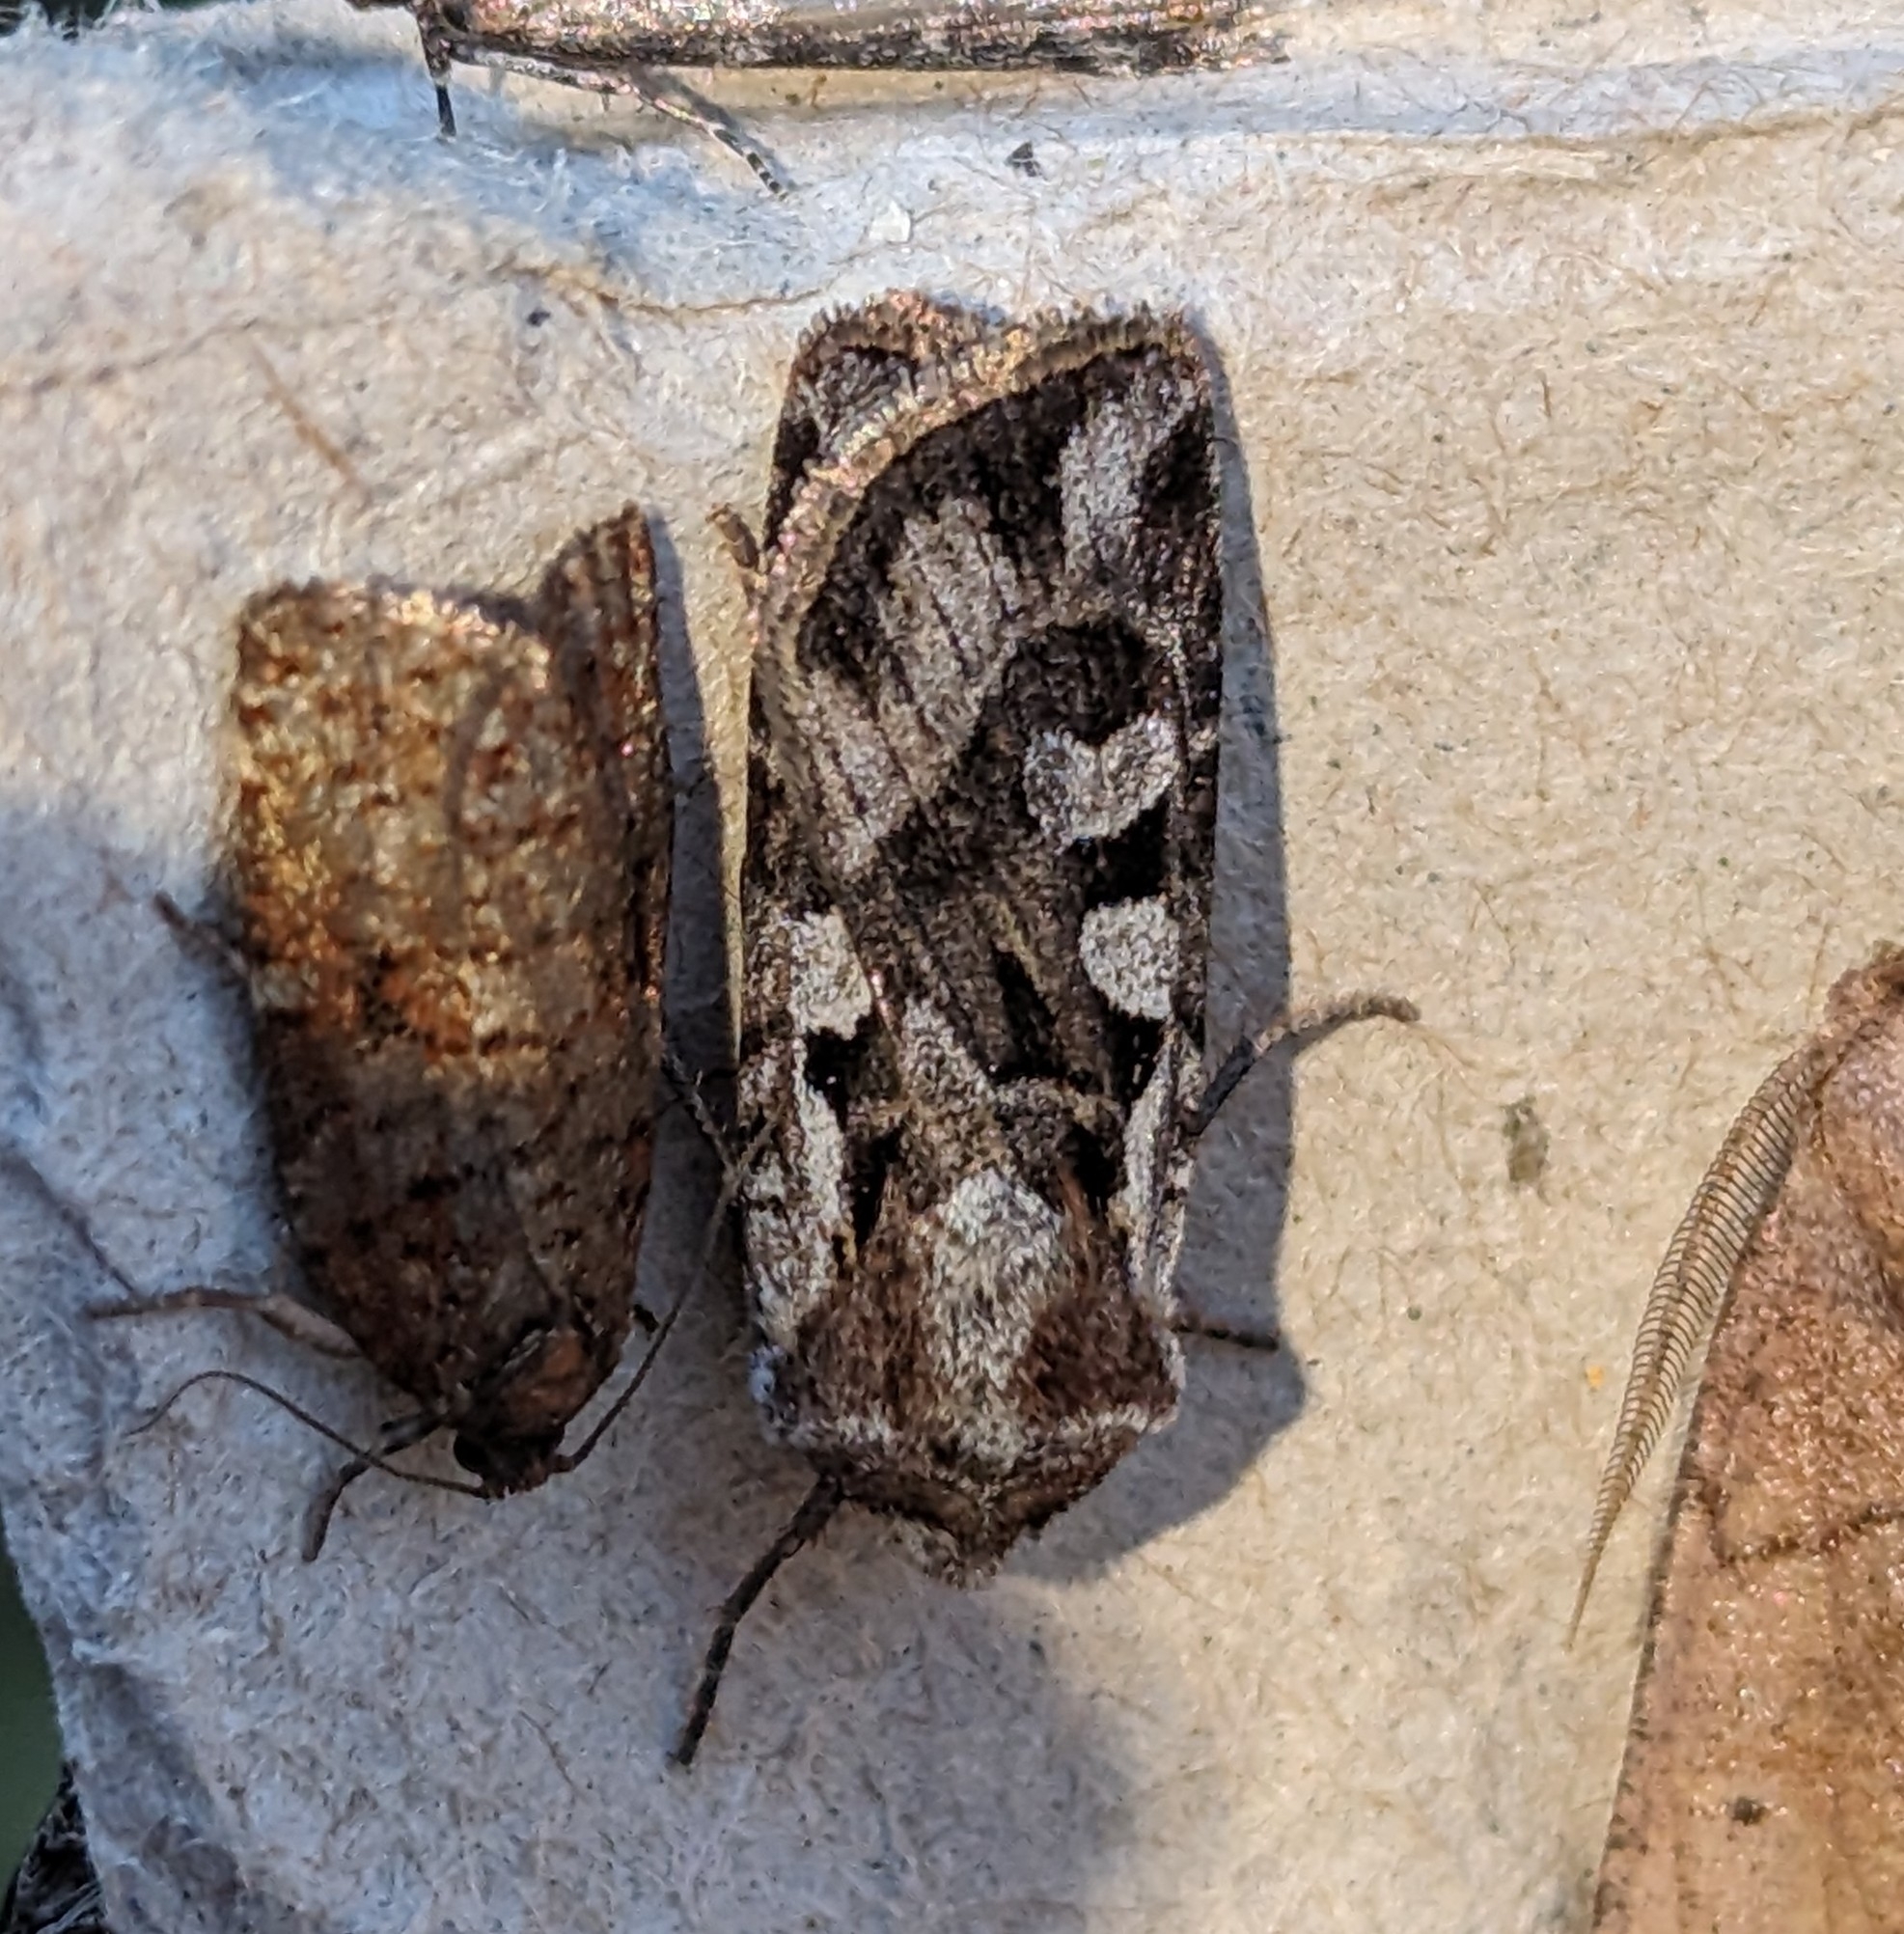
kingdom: Animalia
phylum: Arthropoda
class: Insecta
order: Lepidoptera
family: Noctuidae
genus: Euxoa
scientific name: Euxoa servita
